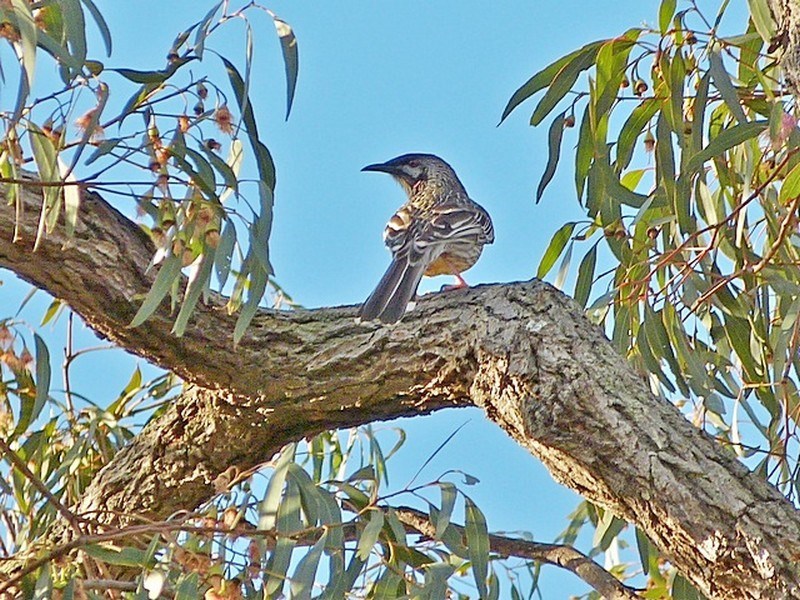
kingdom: Animalia
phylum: Chordata
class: Aves
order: Passeriformes
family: Meliphagidae
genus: Anthochaera
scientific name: Anthochaera carunculata
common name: Red wattlebird
